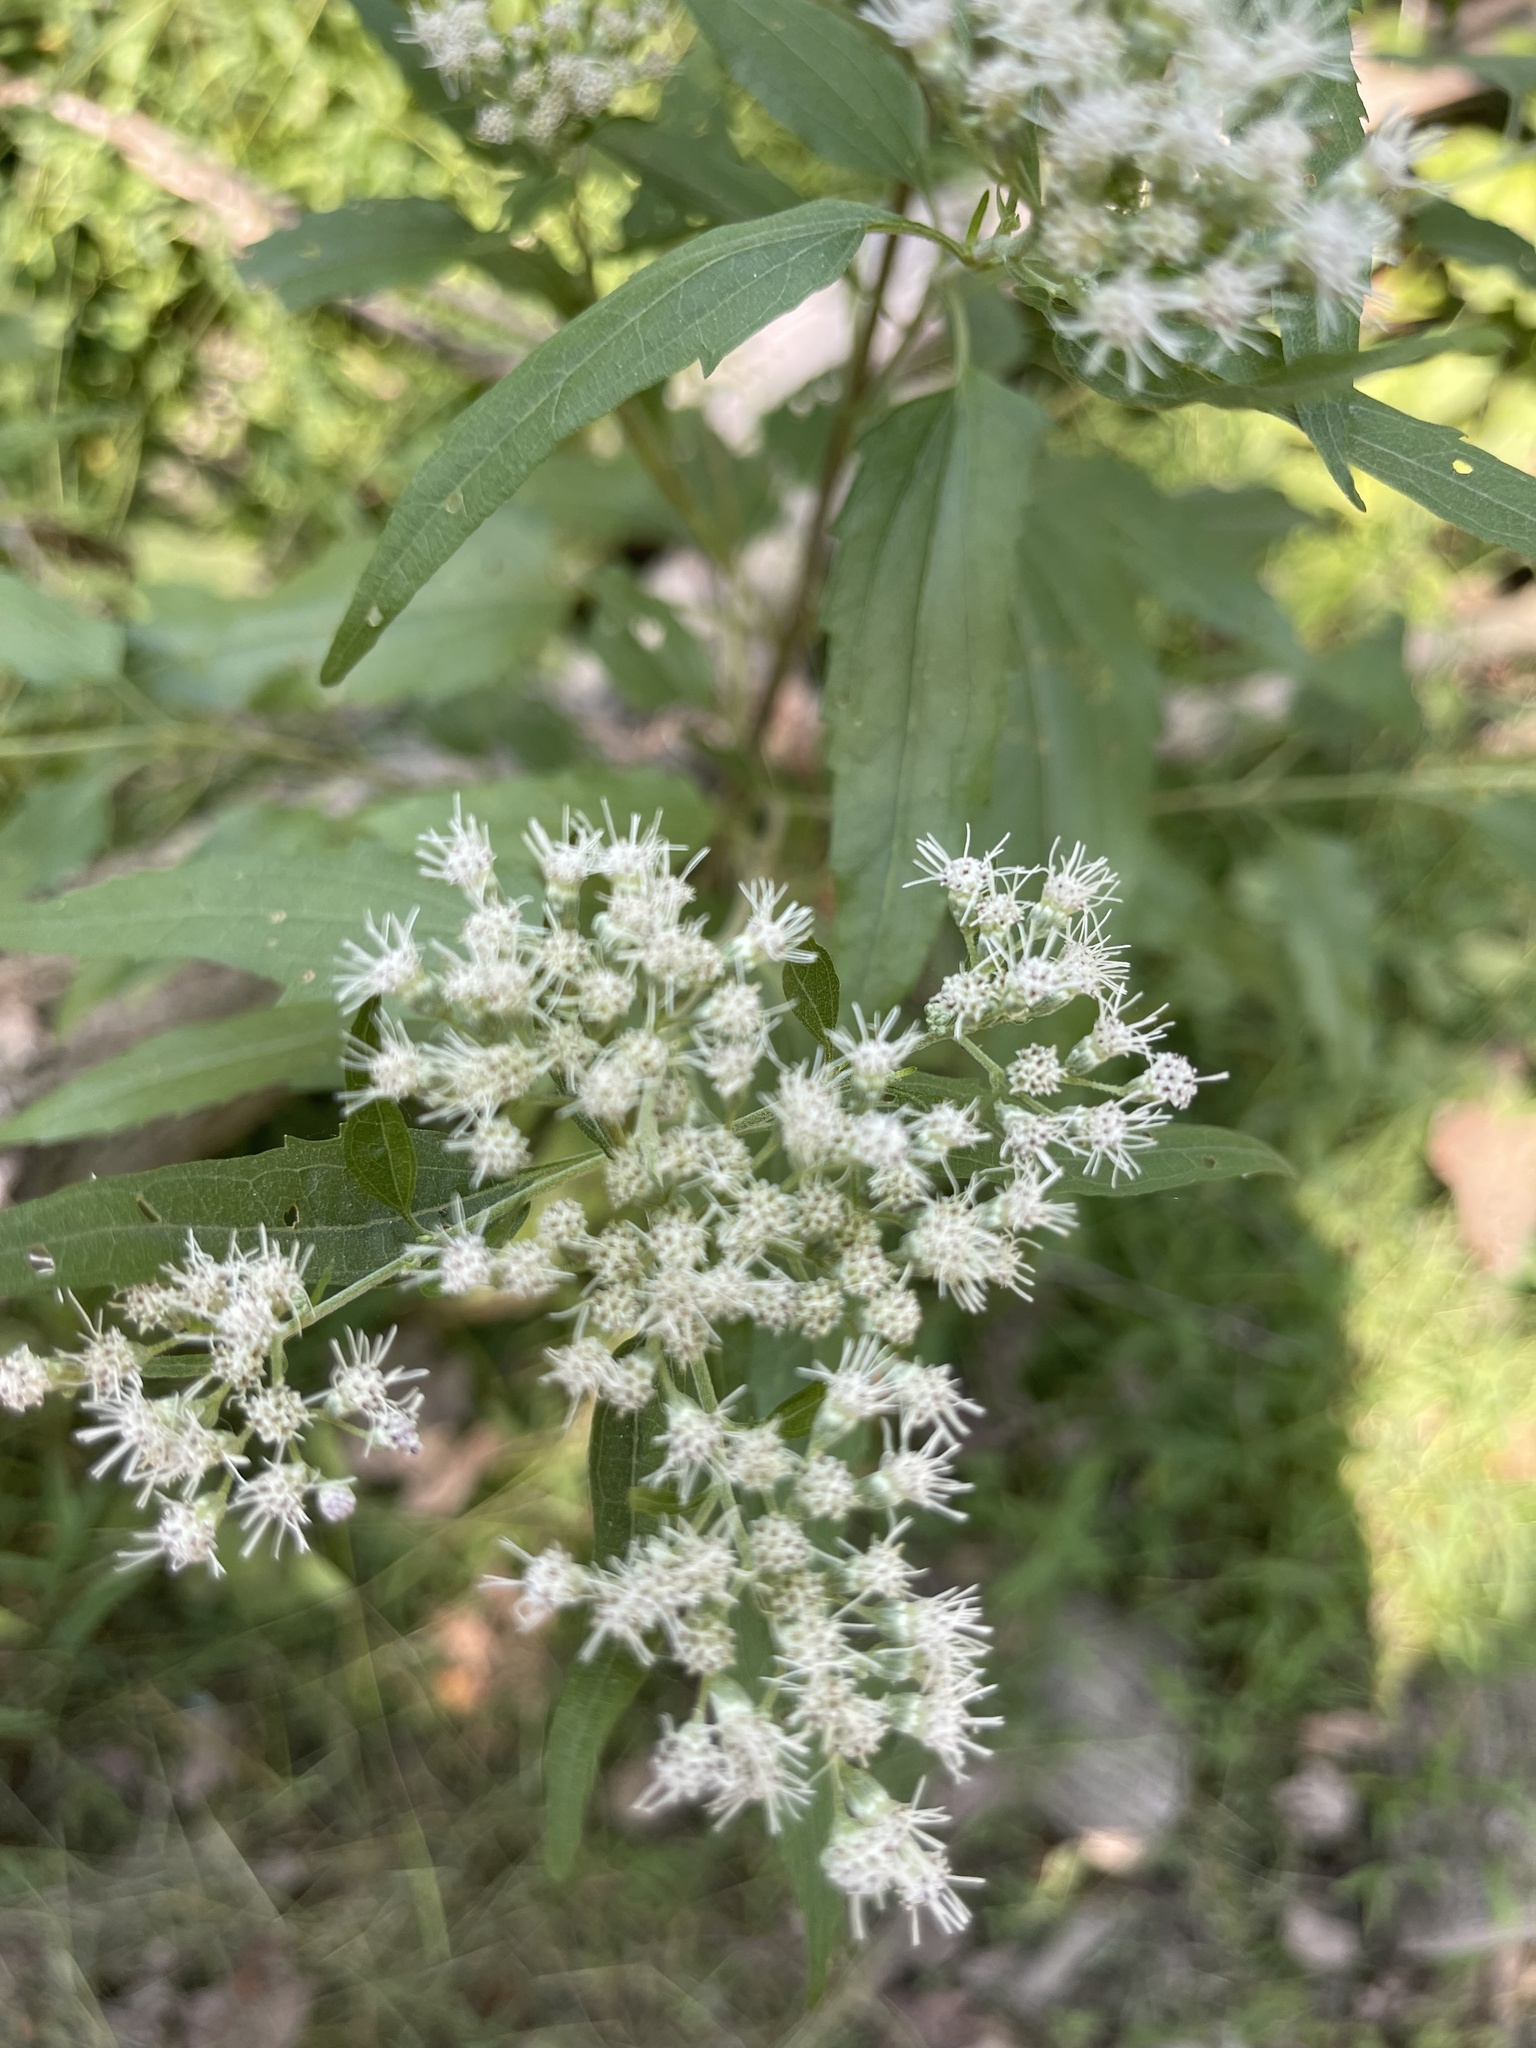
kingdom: Plantae
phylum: Tracheophyta
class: Magnoliopsida
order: Asterales
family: Asteraceae
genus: Eupatorium
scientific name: Eupatorium serotinum
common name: Late boneset
